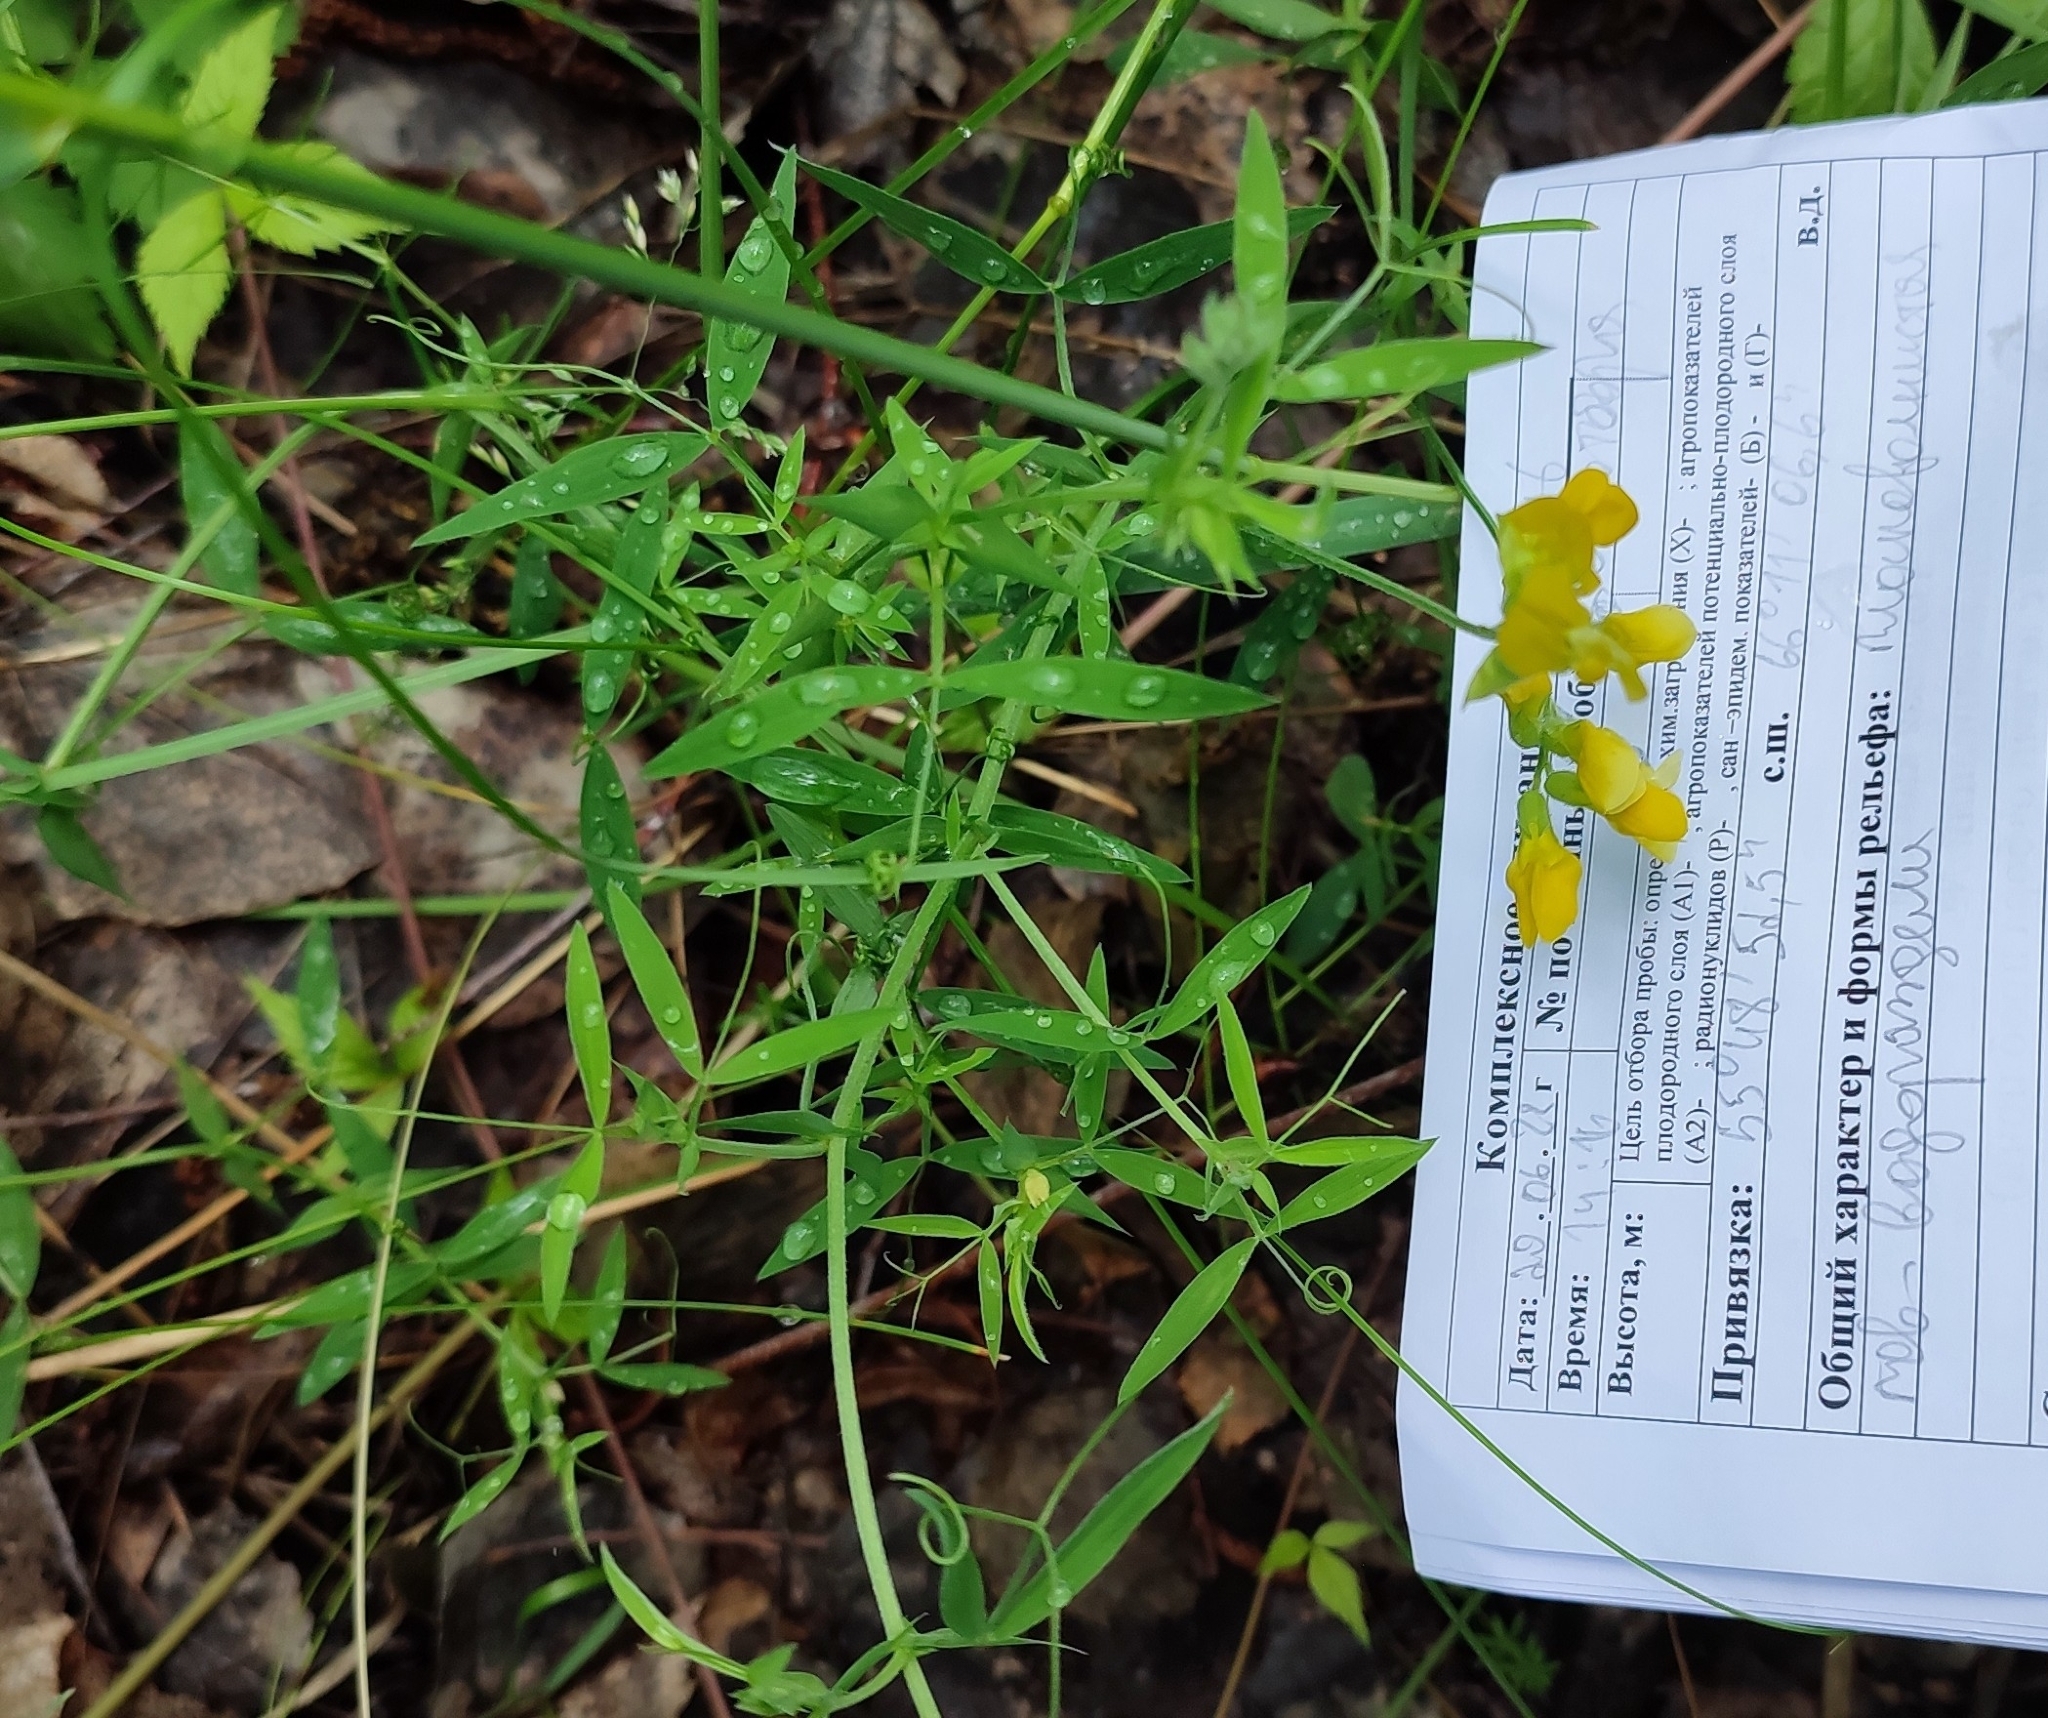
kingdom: Plantae
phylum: Tracheophyta
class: Magnoliopsida
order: Fabales
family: Fabaceae
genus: Lathyrus
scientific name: Lathyrus pratensis
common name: Meadow vetchling
